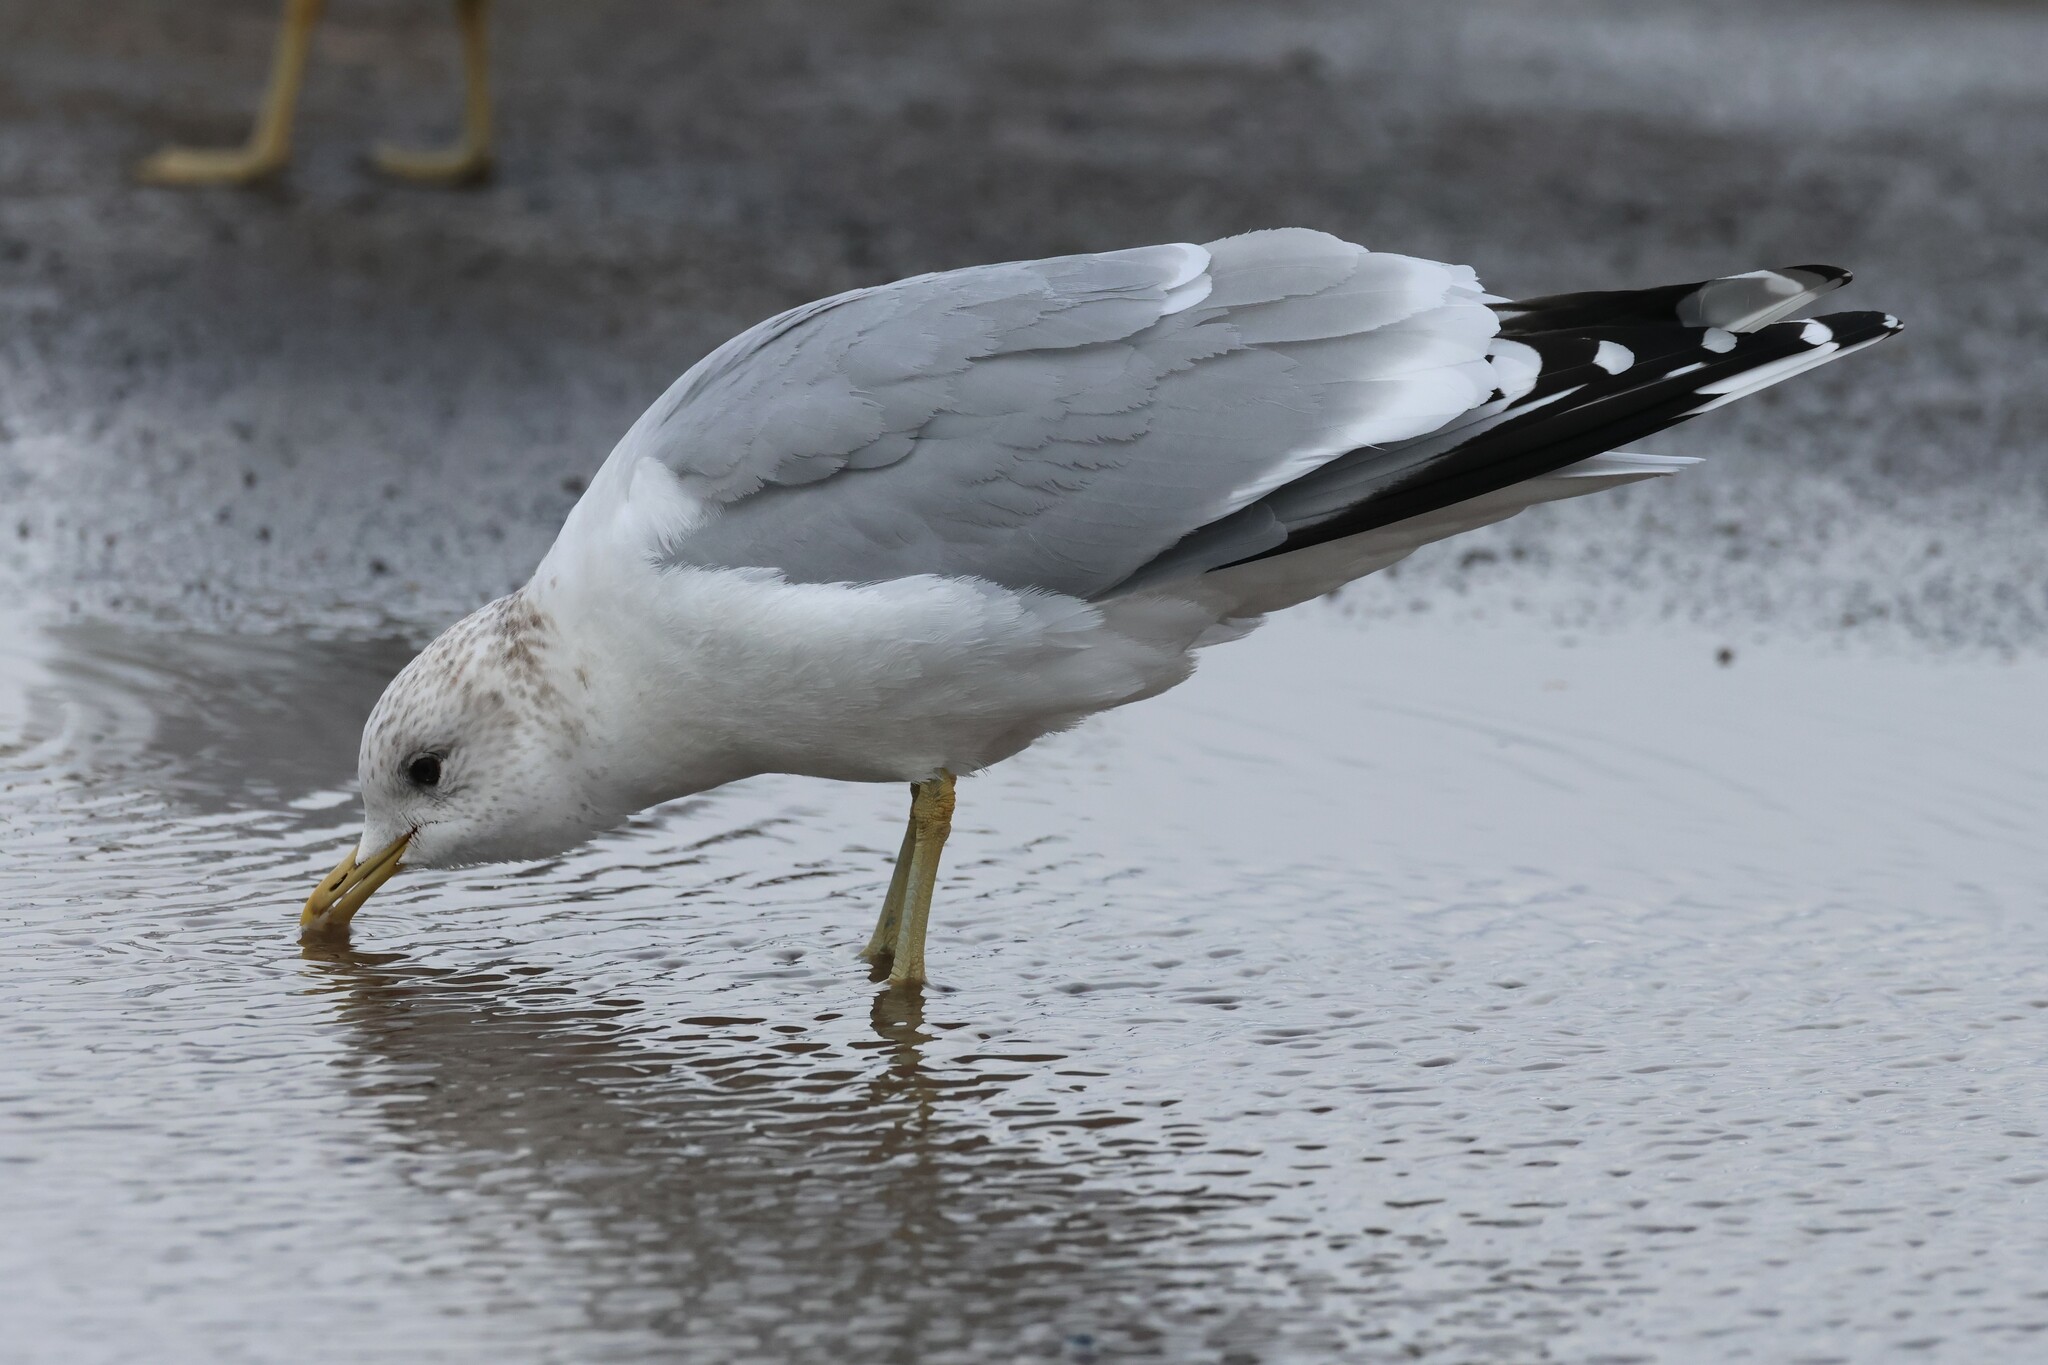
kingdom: Animalia
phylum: Chordata
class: Aves
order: Charadriiformes
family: Laridae
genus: Larus
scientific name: Larus canus
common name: Mew gull
